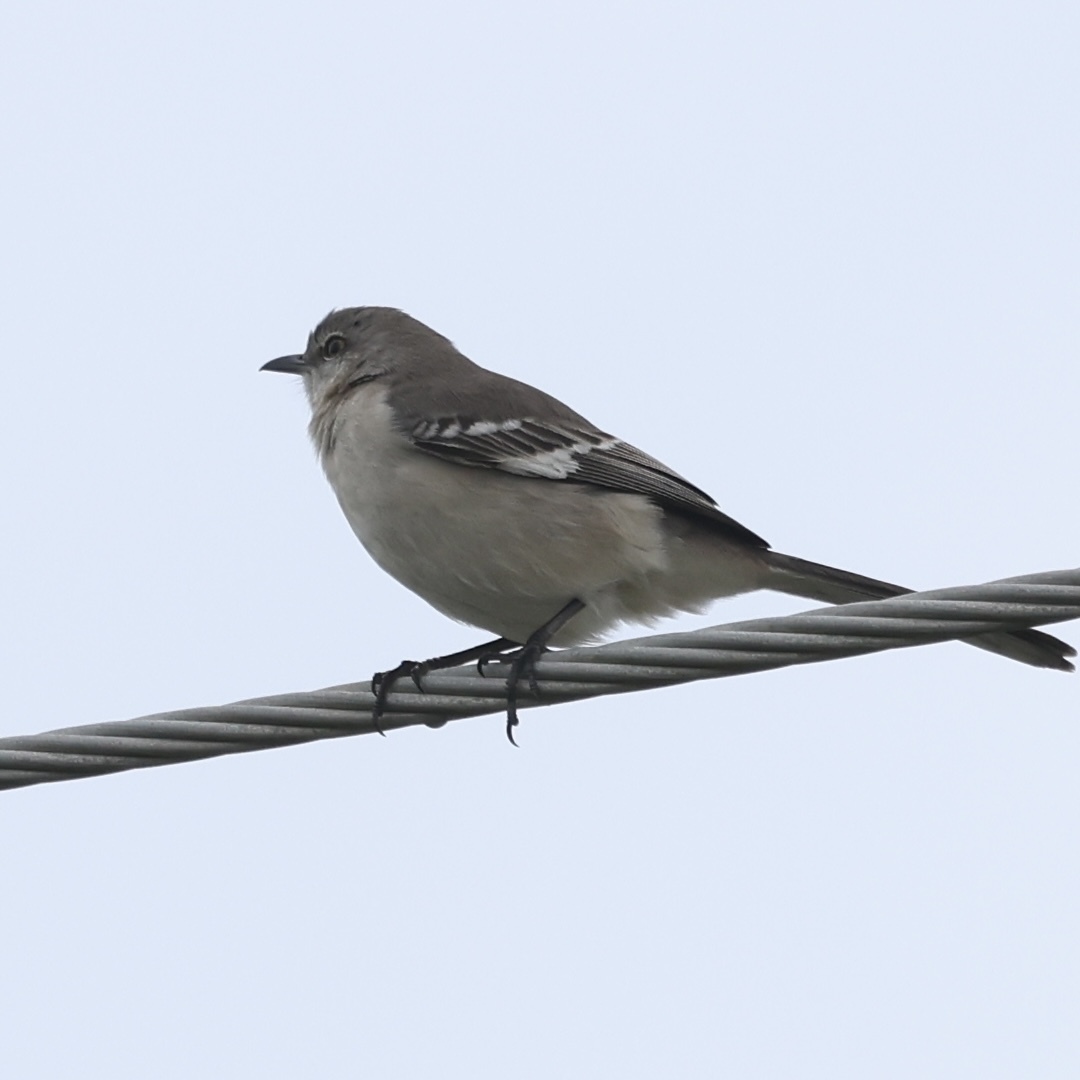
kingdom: Animalia
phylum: Chordata
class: Aves
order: Passeriformes
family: Mimidae
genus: Mimus
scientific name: Mimus polyglottos
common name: Northern mockingbird
